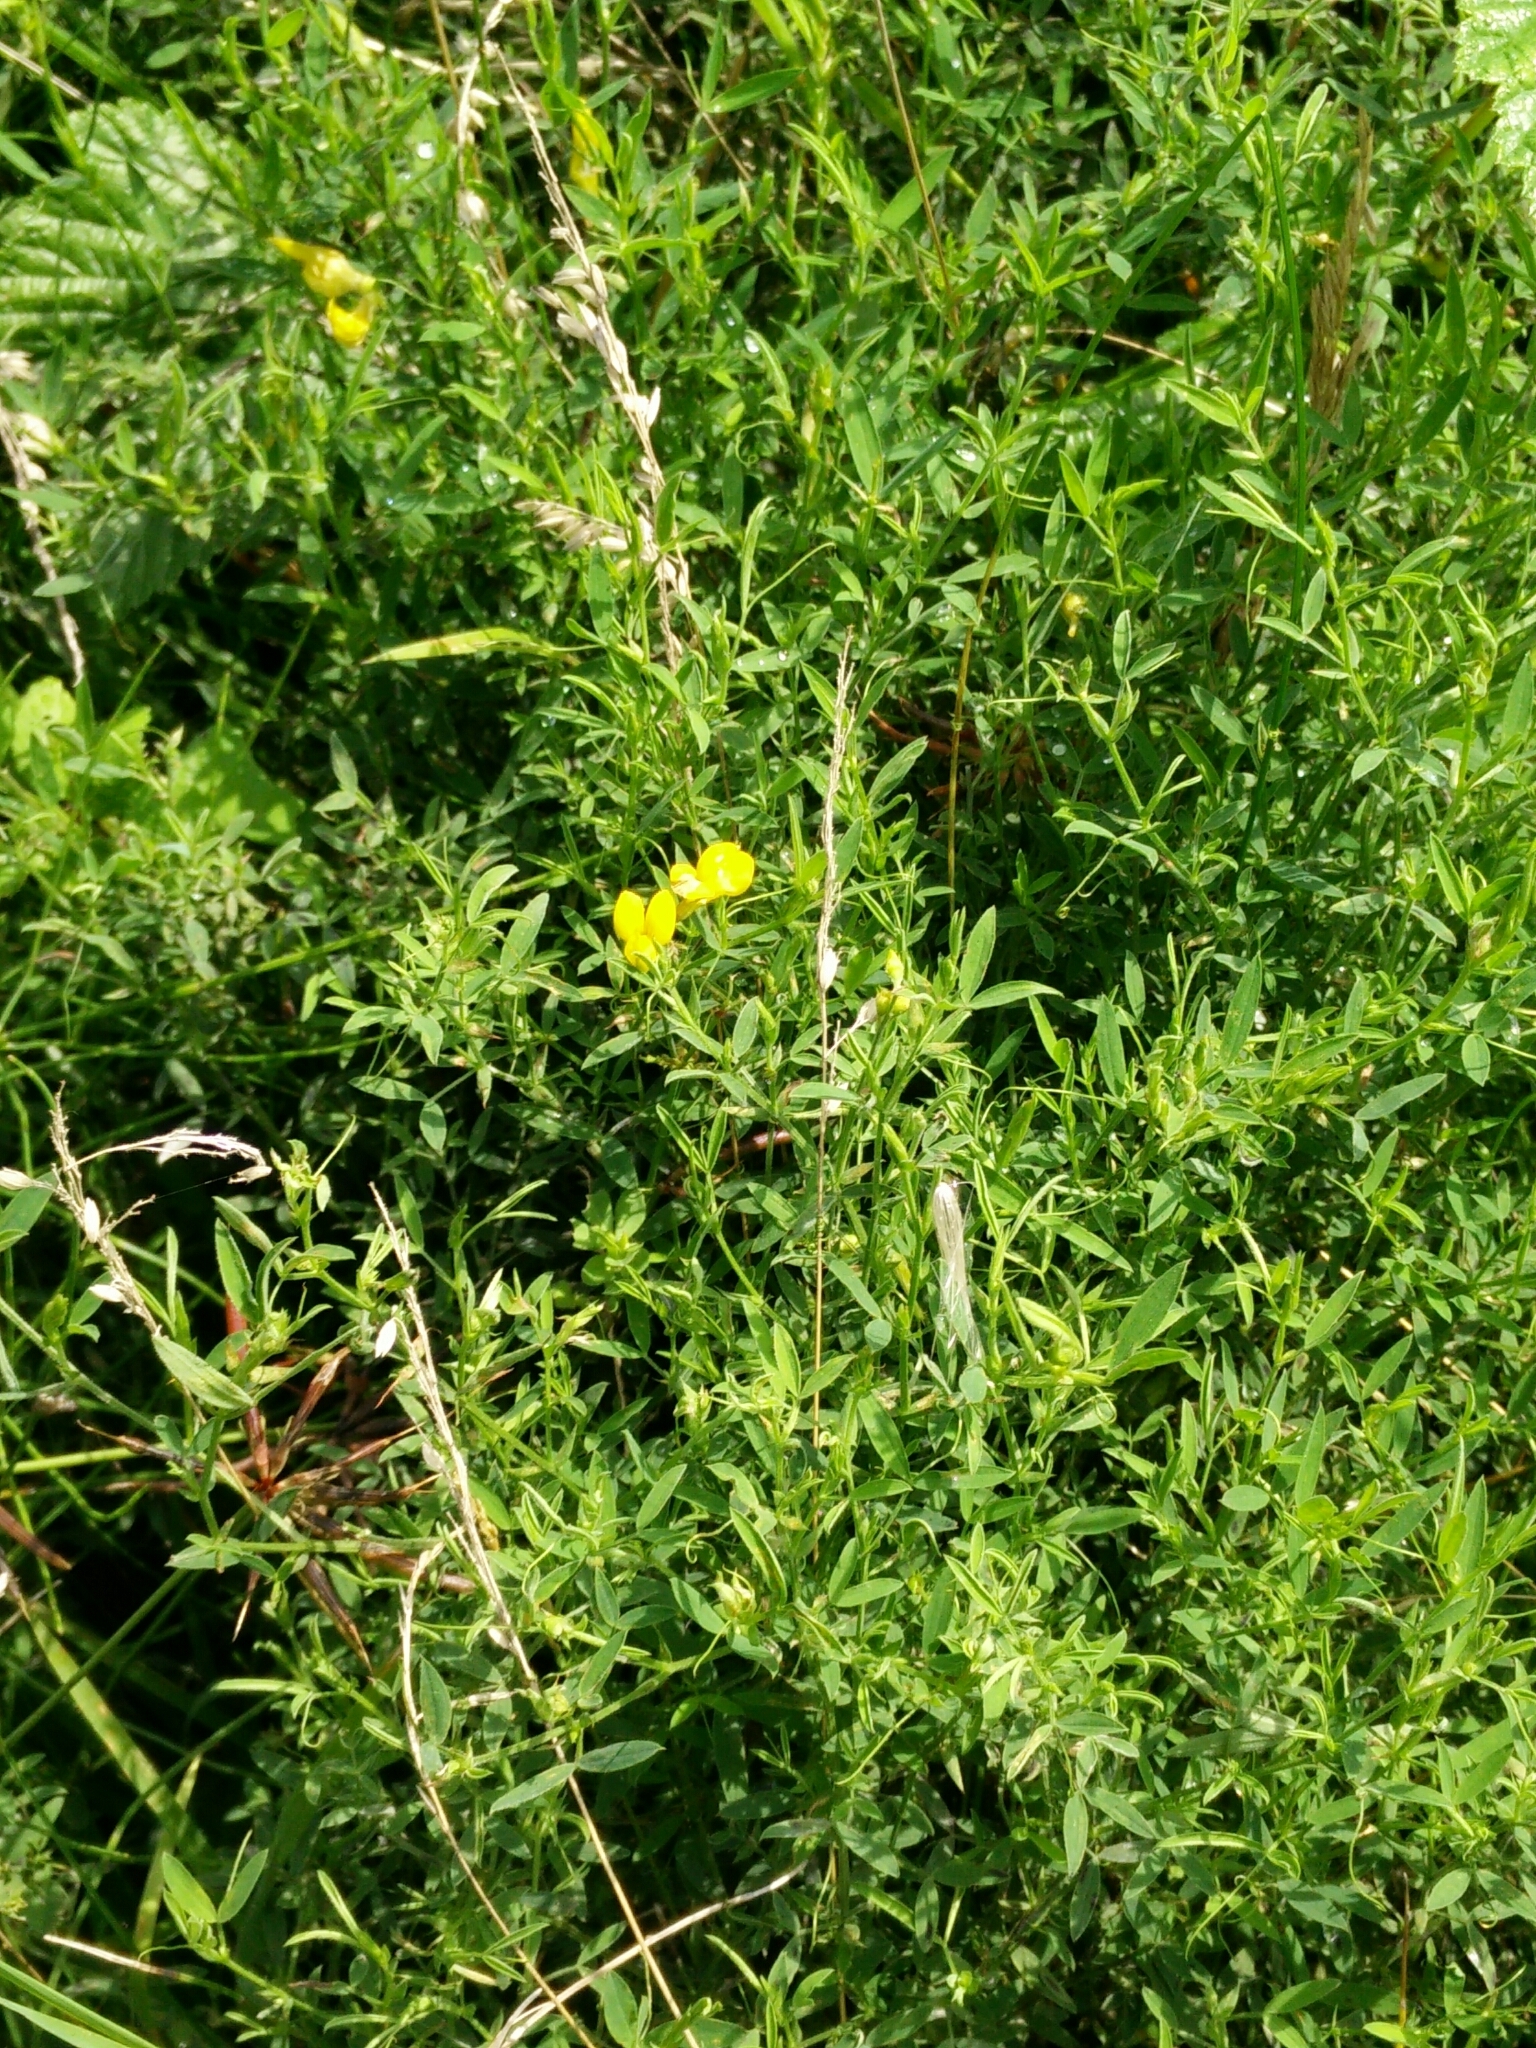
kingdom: Plantae
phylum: Tracheophyta
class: Magnoliopsida
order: Fabales
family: Fabaceae
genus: Lathyrus
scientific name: Lathyrus pratensis
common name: Meadow vetchling
